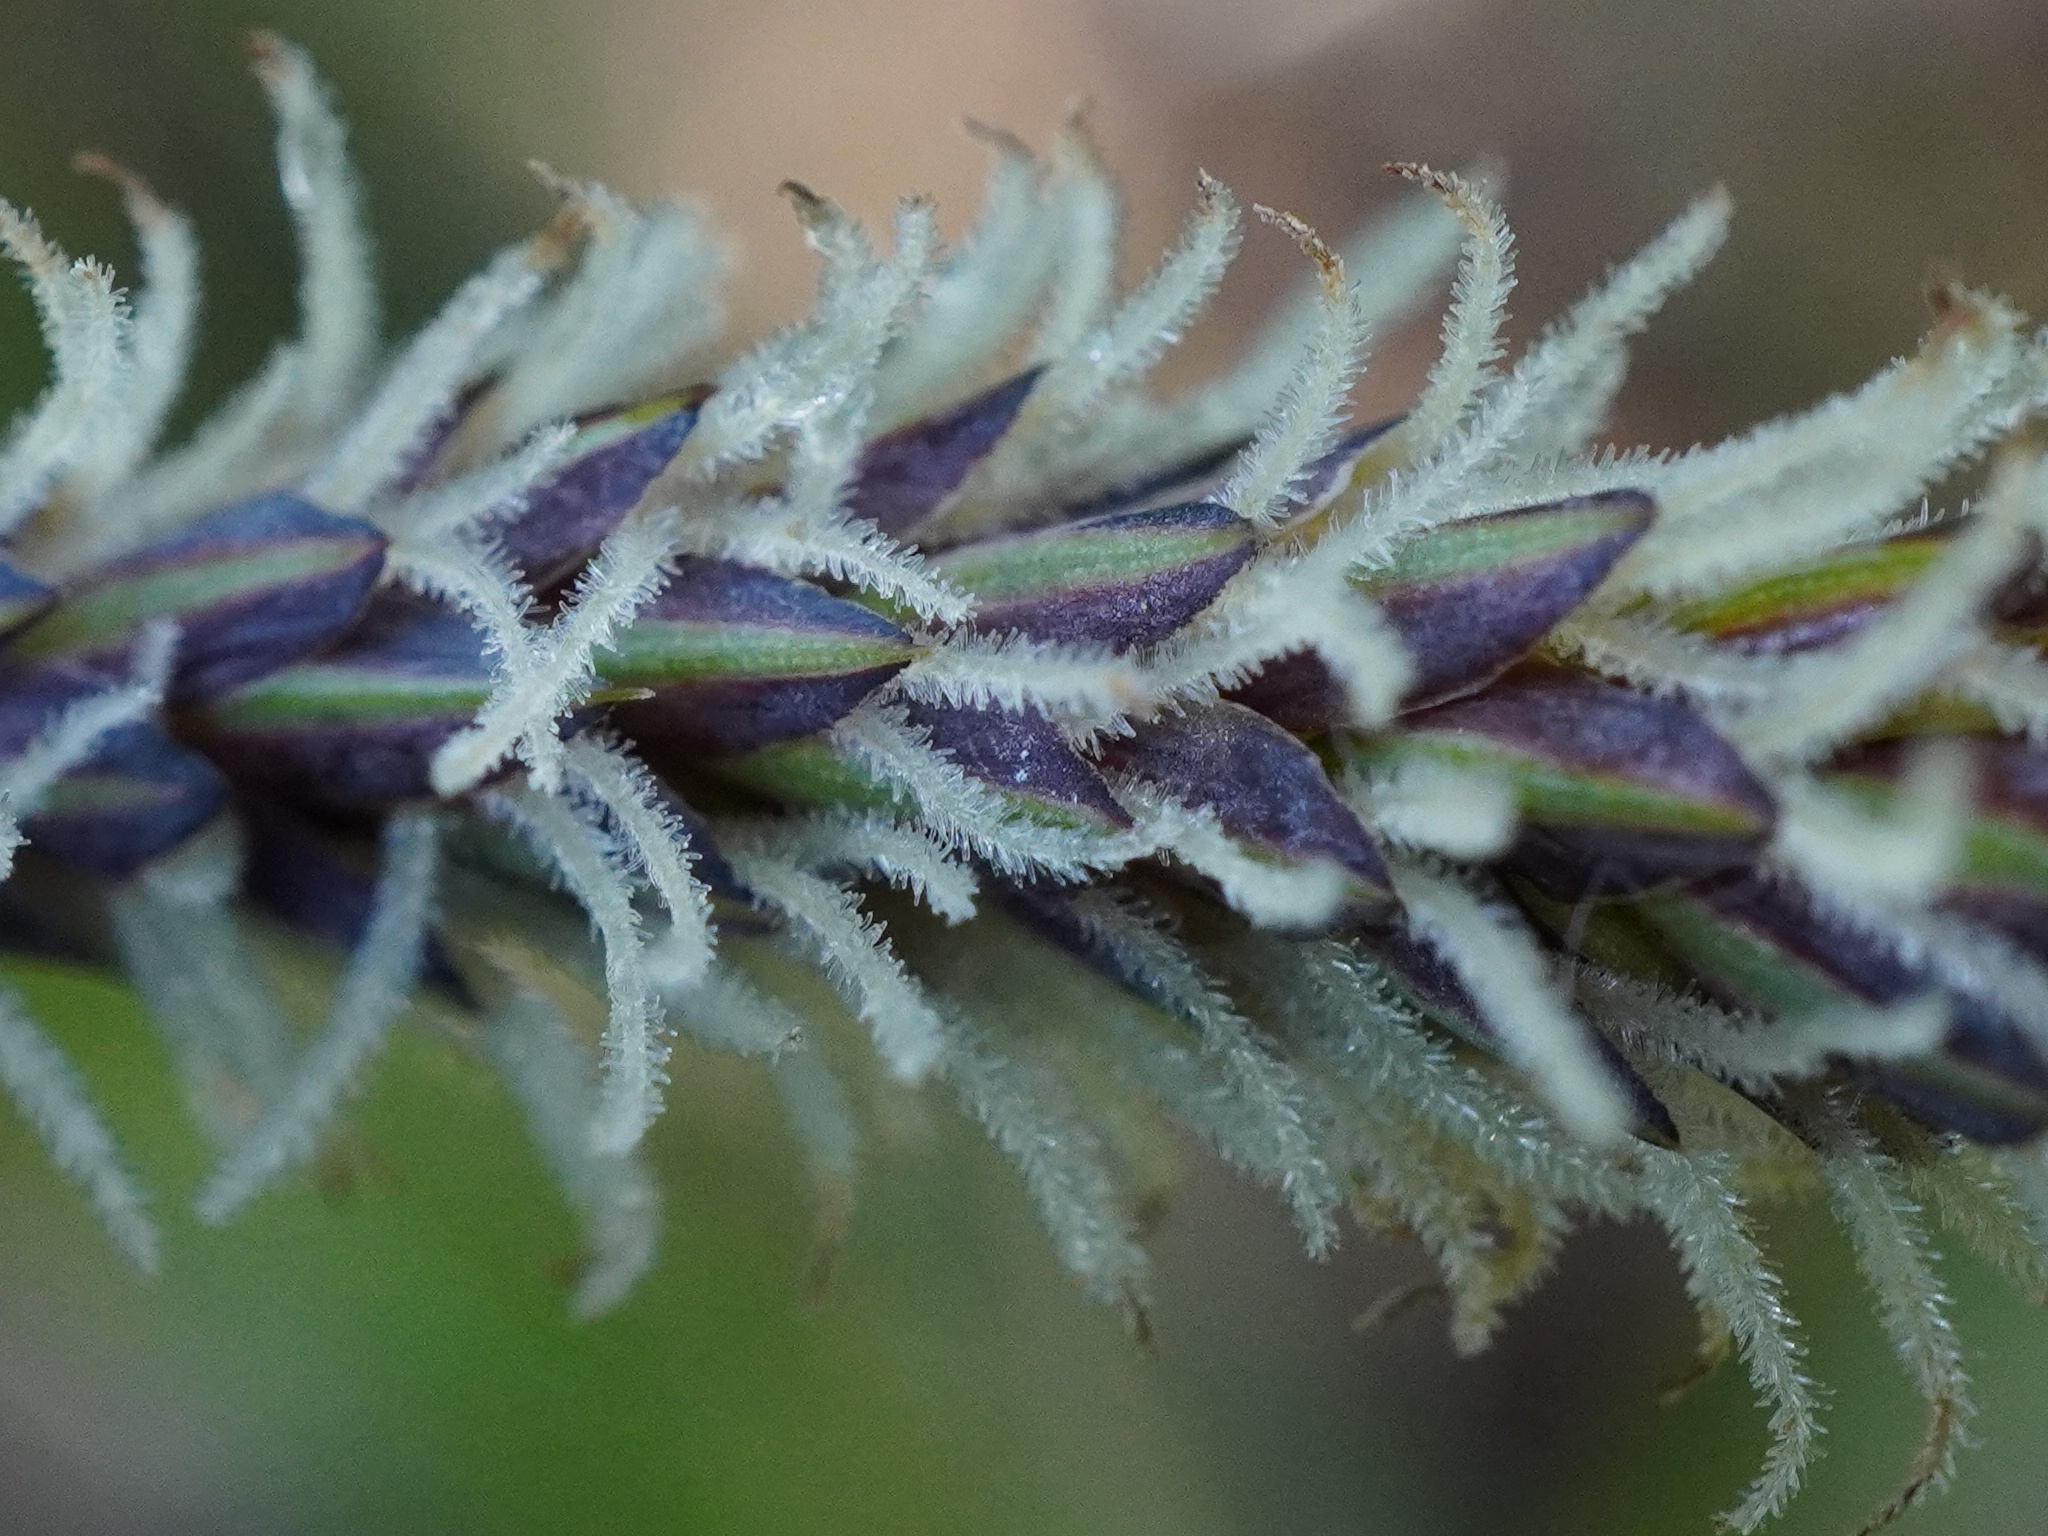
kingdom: Plantae
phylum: Tracheophyta
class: Liliopsida
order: Poales
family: Cyperaceae
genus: Carex
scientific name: Carex flacca
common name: Glaucous sedge
